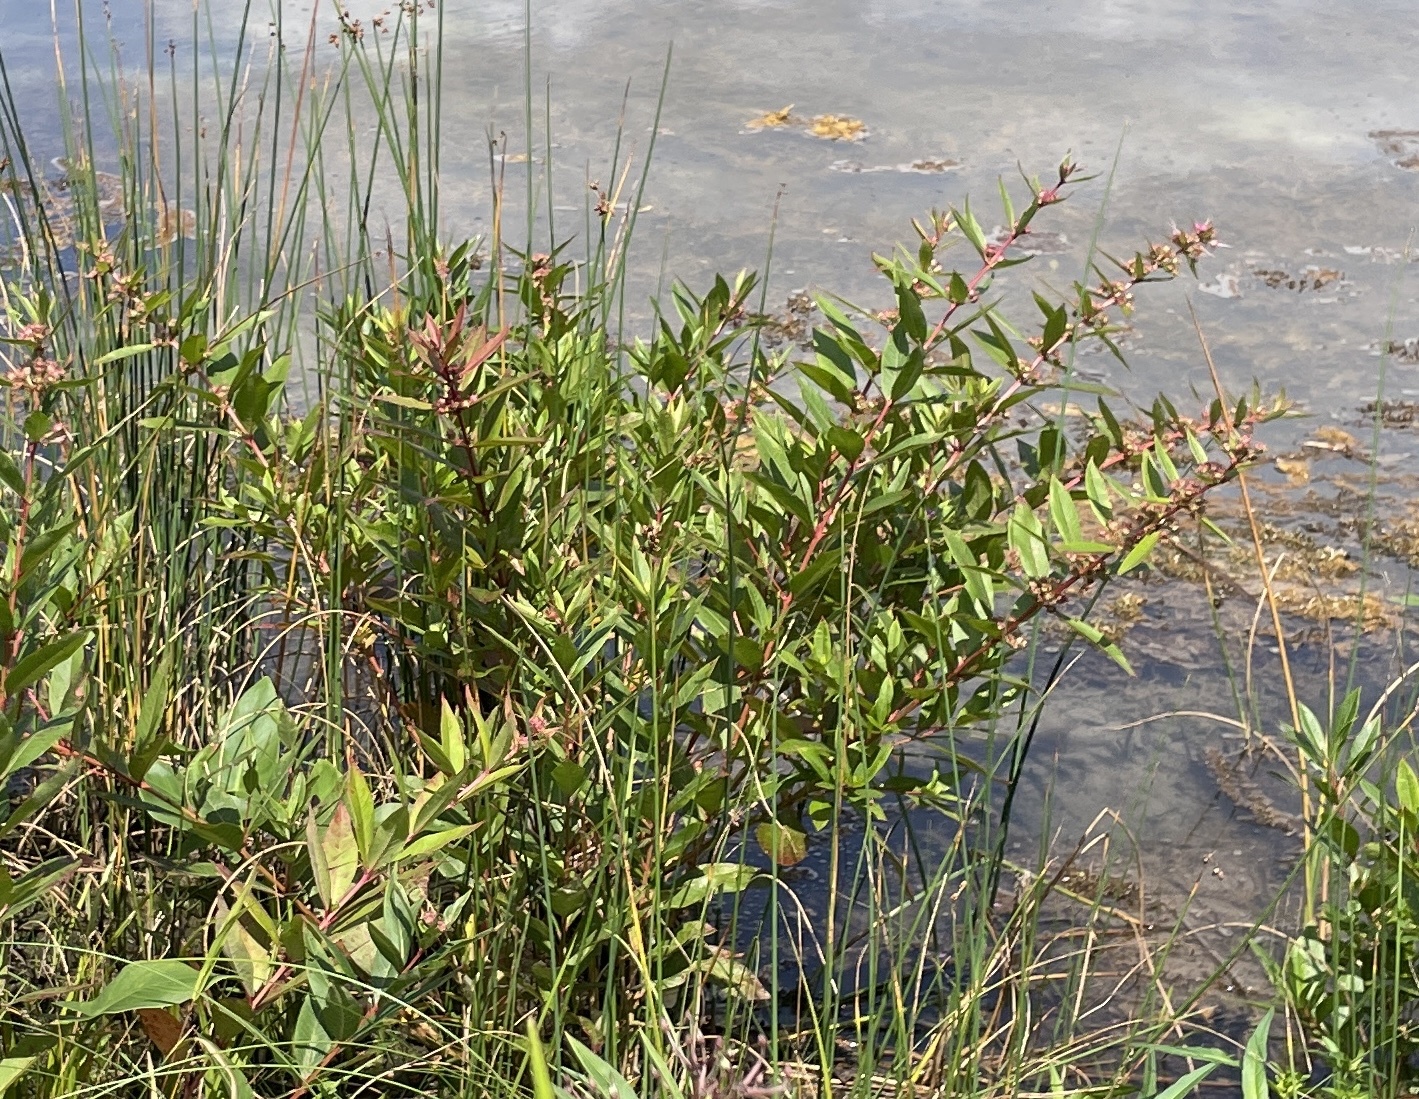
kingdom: Plantae
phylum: Tracheophyta
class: Magnoliopsida
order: Myrtales
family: Lythraceae
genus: Decodon
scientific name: Decodon verticillatus
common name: Hairy swamp loosestrife
